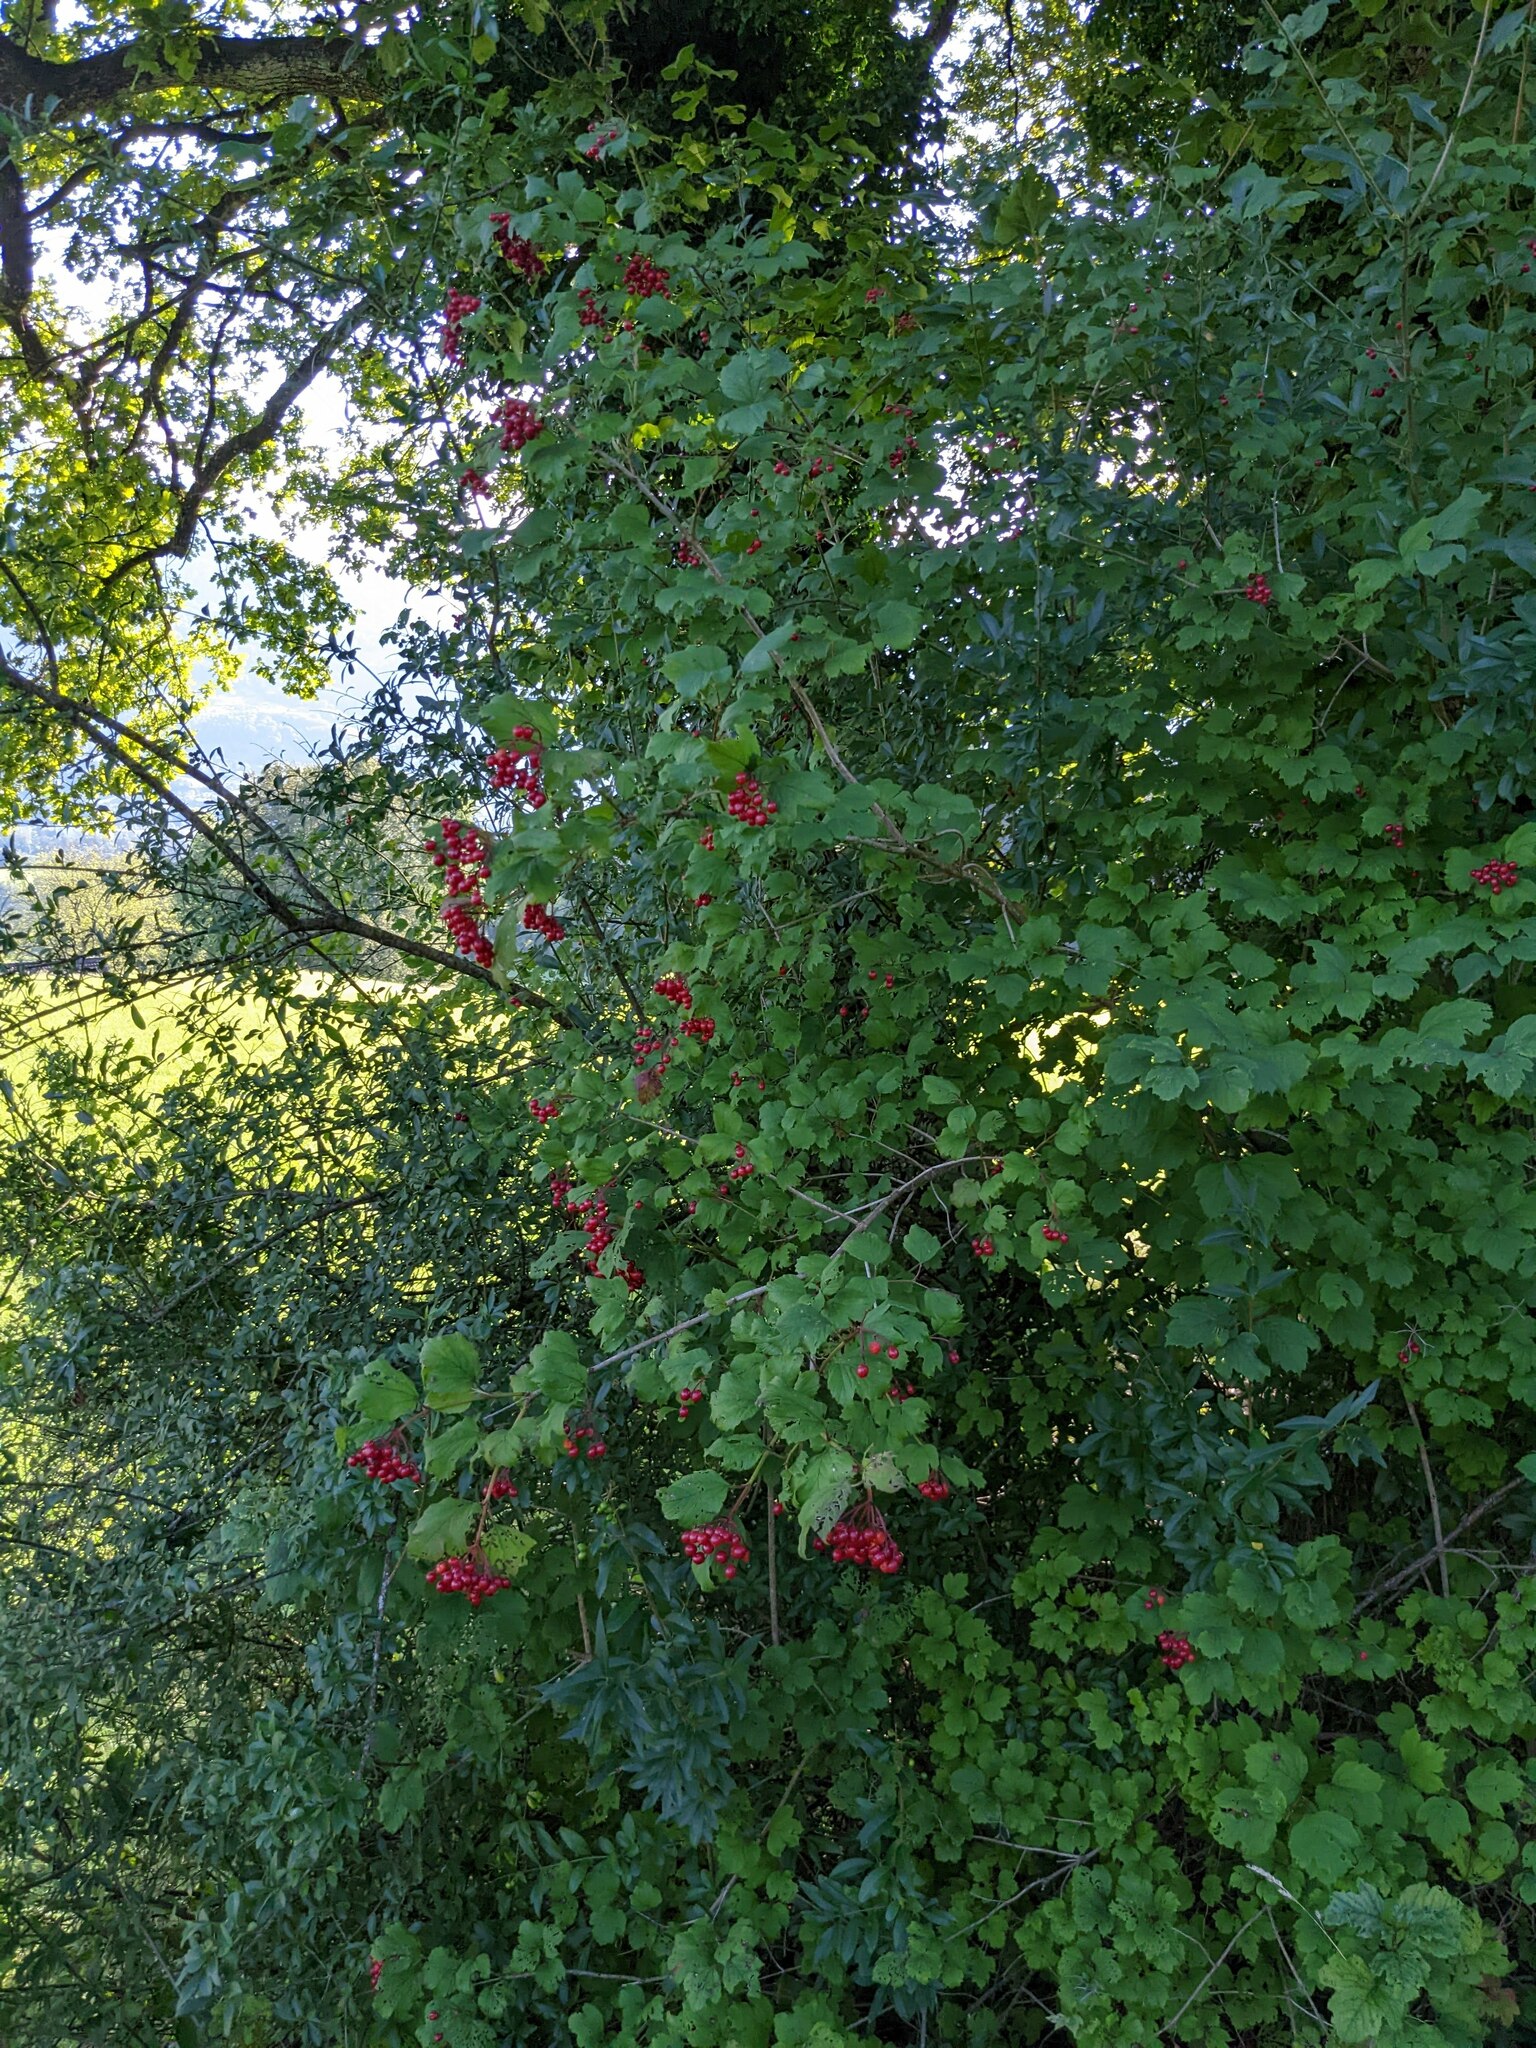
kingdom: Plantae
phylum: Tracheophyta
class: Magnoliopsida
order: Dipsacales
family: Viburnaceae
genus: Viburnum
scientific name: Viburnum opulus
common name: Guelder-rose
